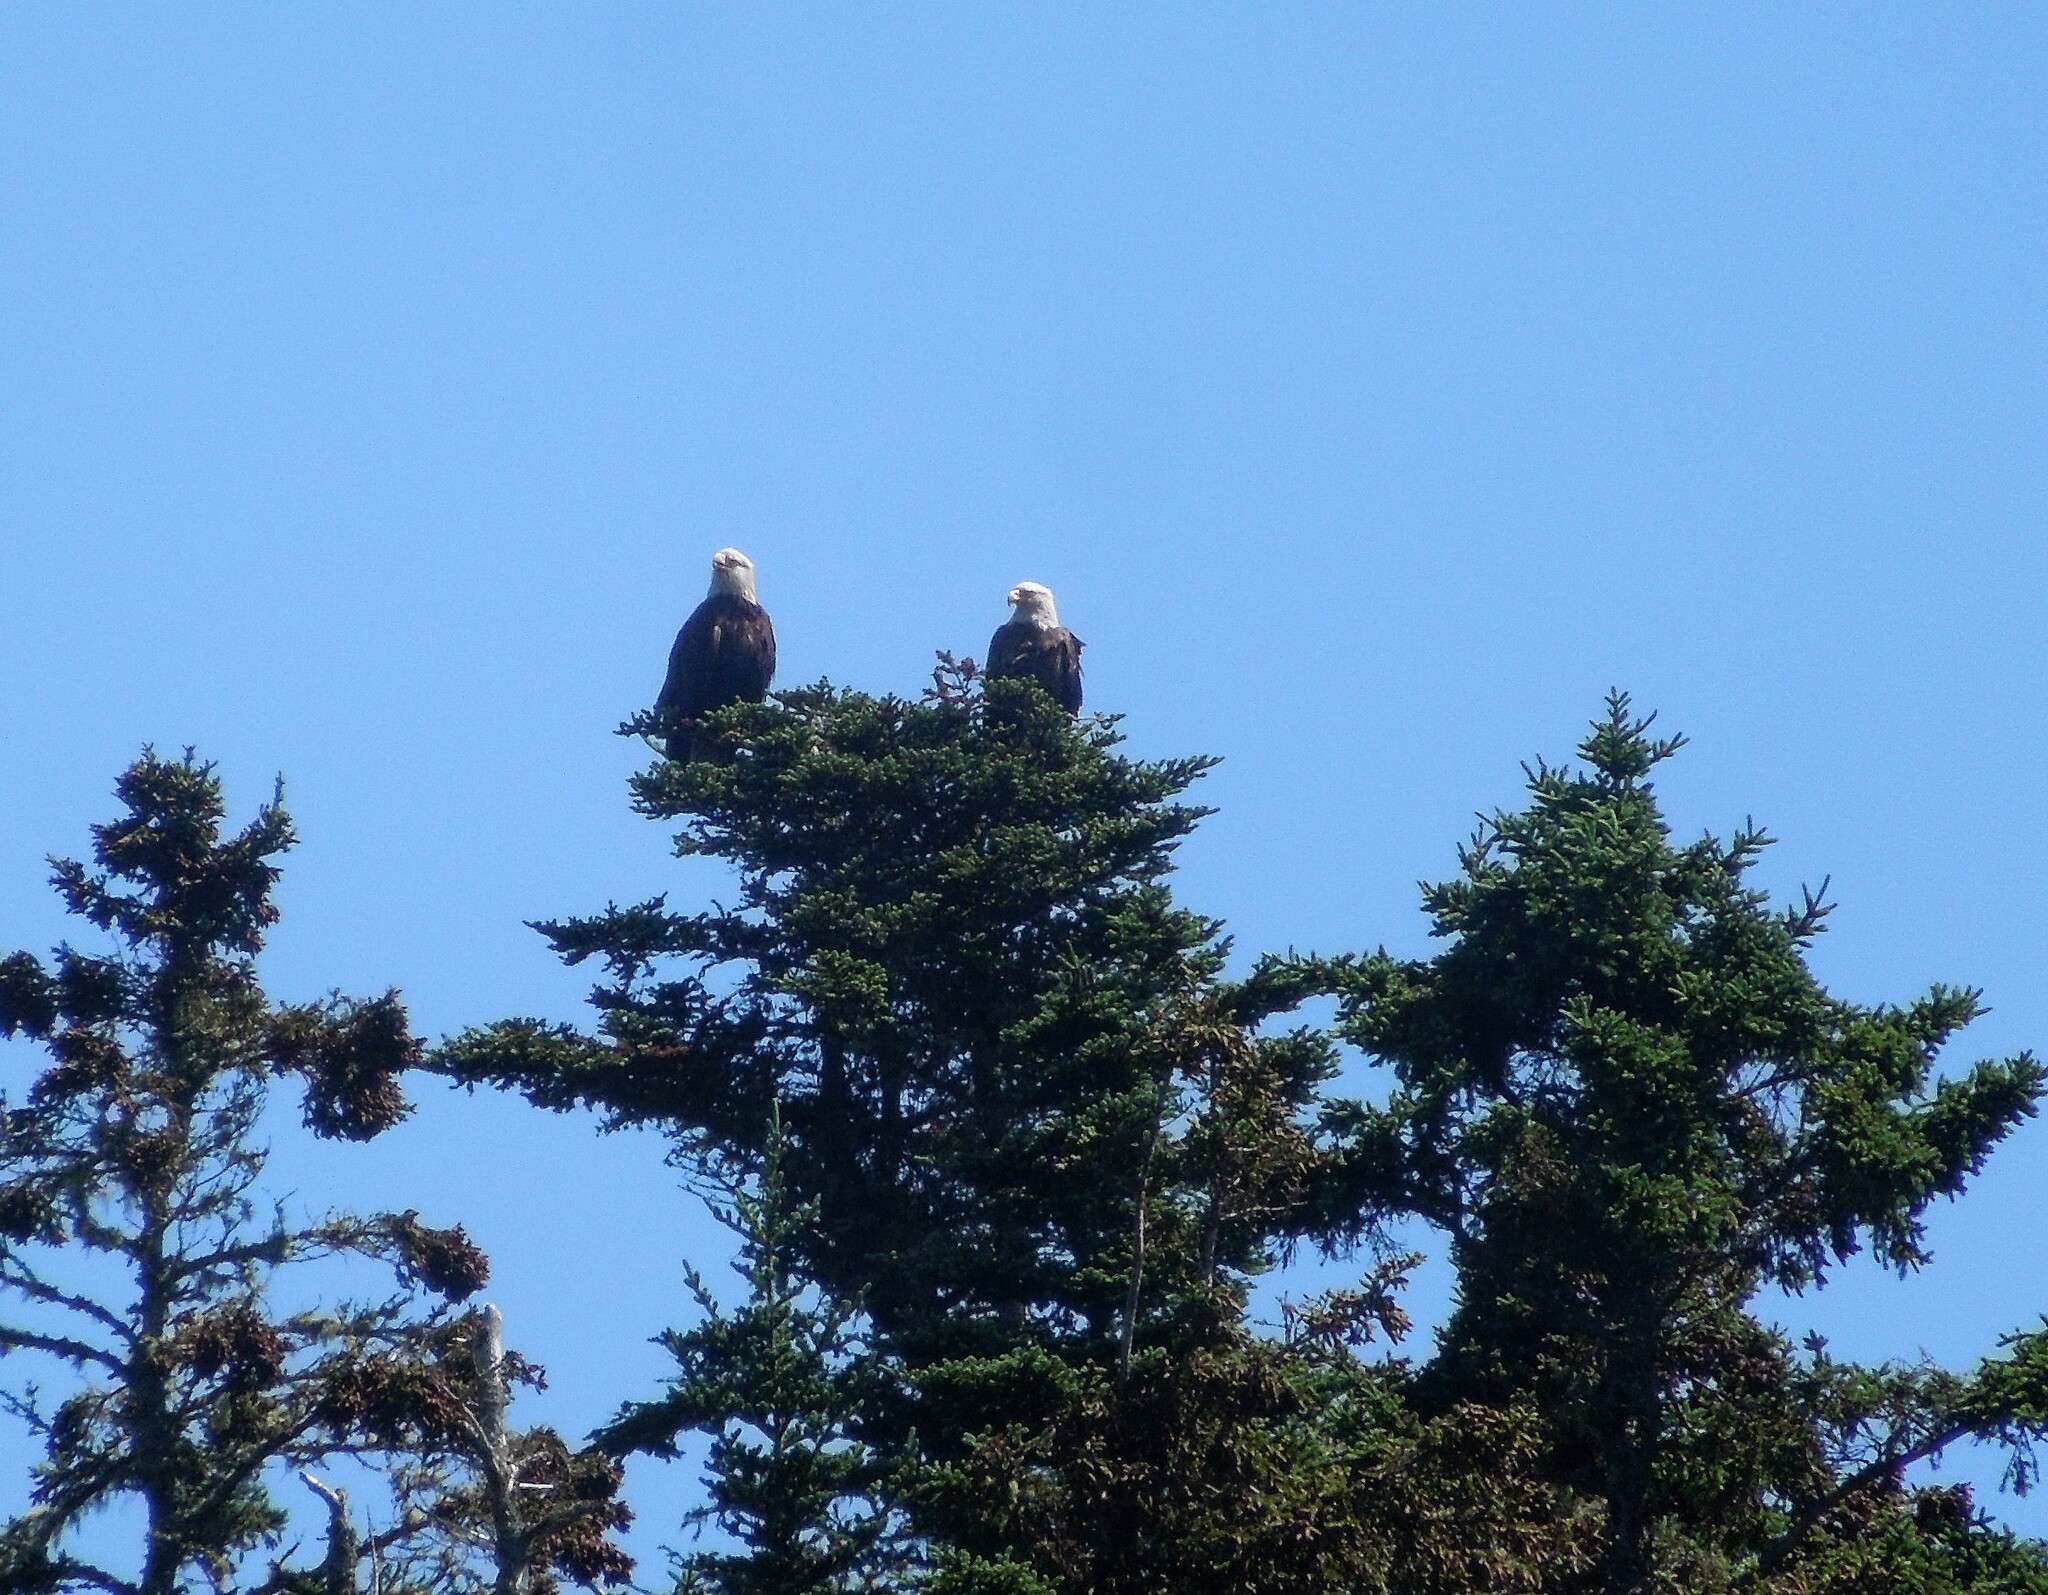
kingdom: Animalia
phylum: Chordata
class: Aves
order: Accipitriformes
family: Accipitridae
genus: Haliaeetus
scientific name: Haliaeetus leucocephalus
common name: Bald eagle
